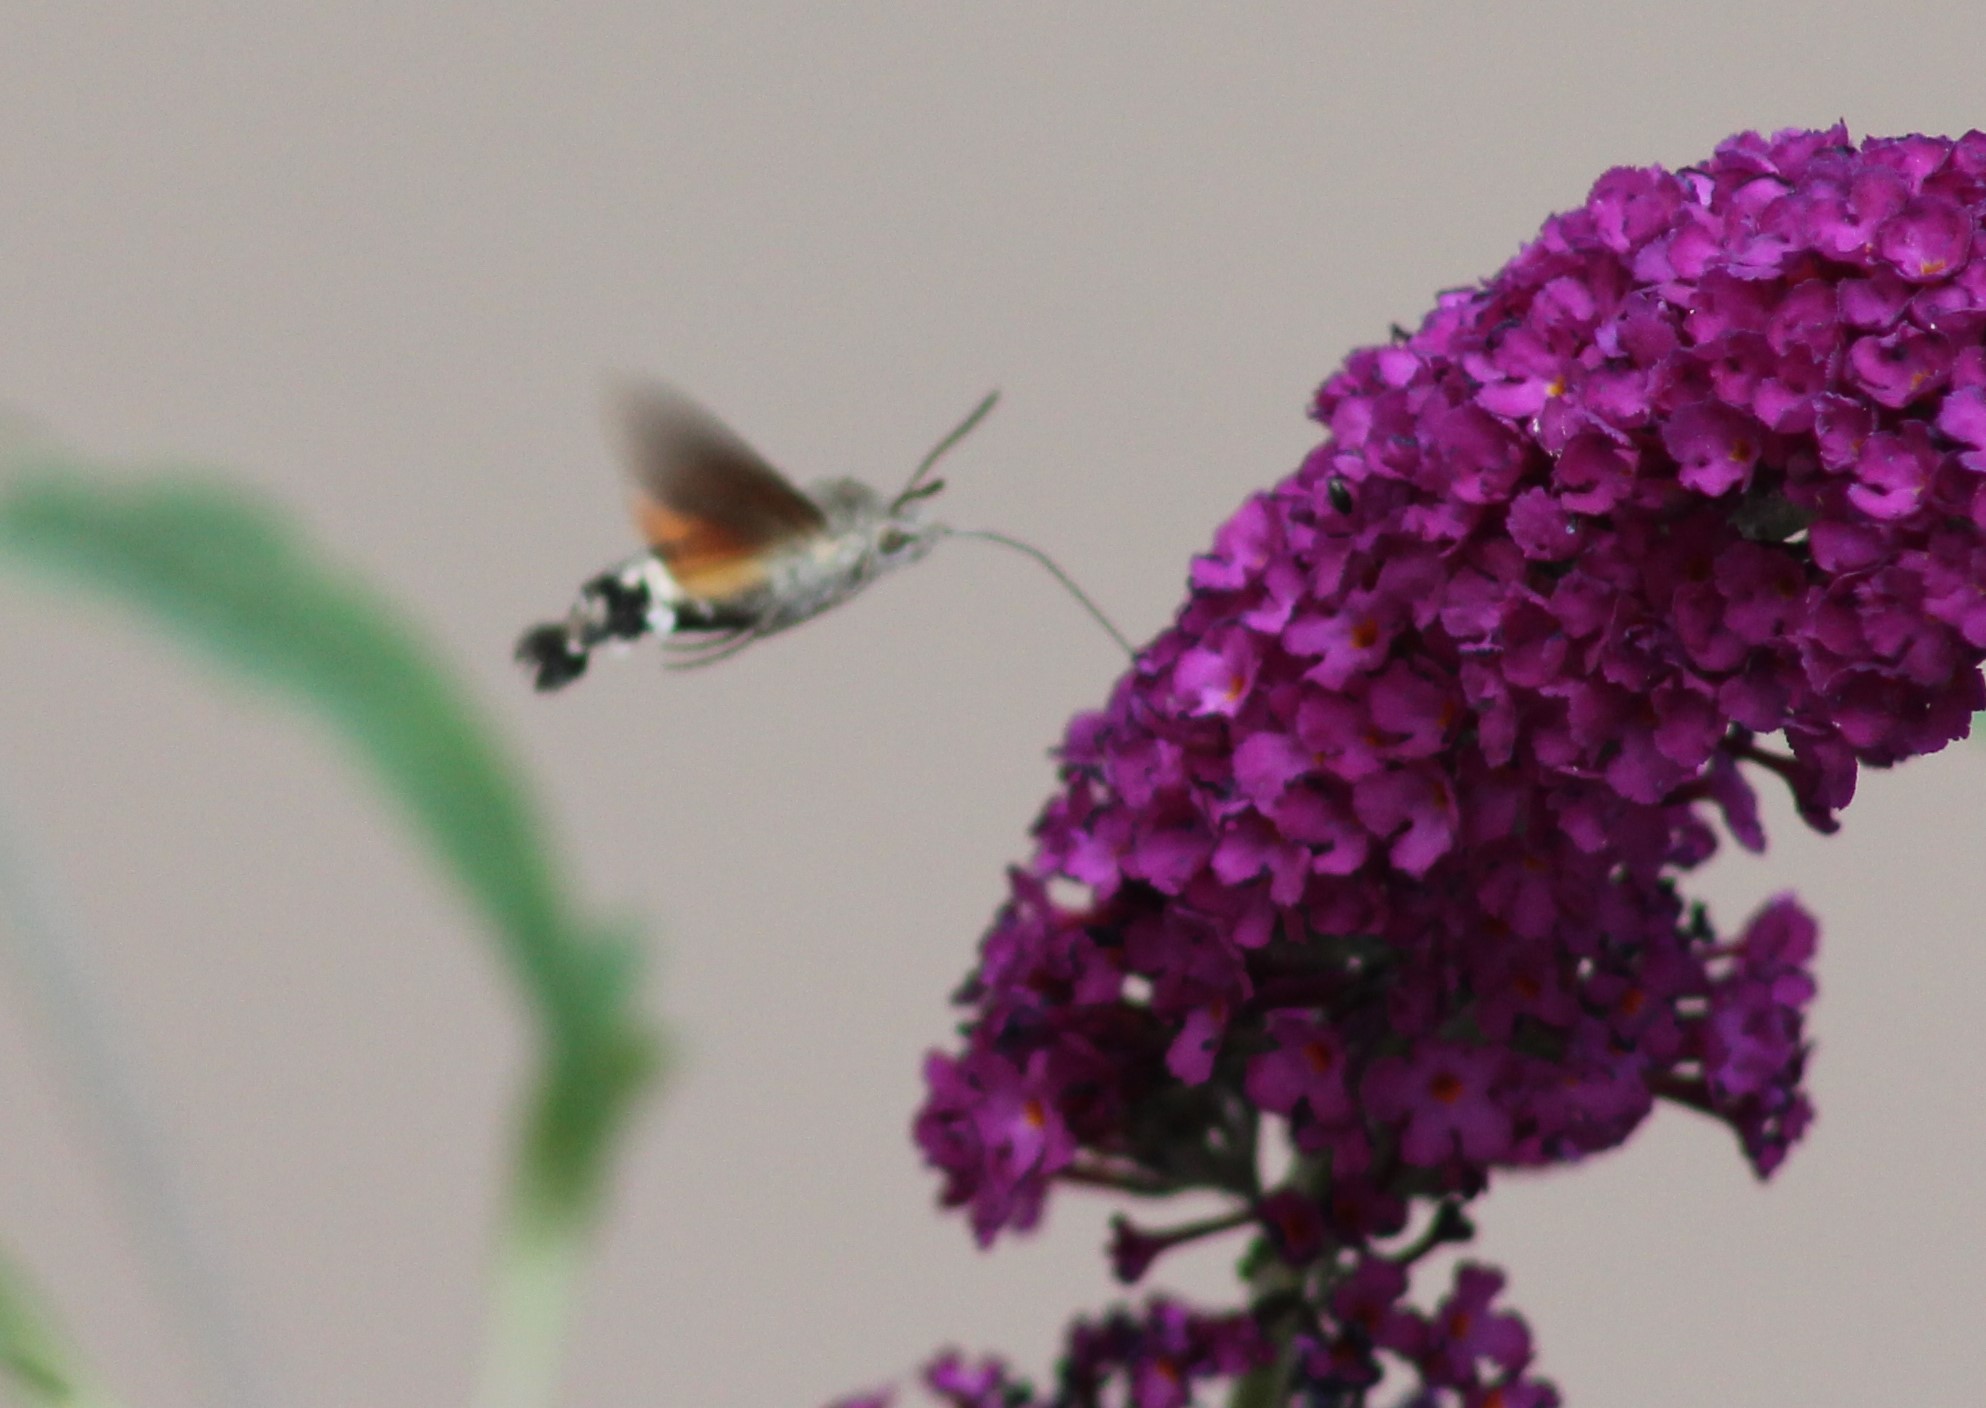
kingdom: Animalia
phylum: Arthropoda
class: Insecta
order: Lepidoptera
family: Sphingidae
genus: Macroglossum
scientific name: Macroglossum stellatarum
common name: Humming-bird hawk-moth
